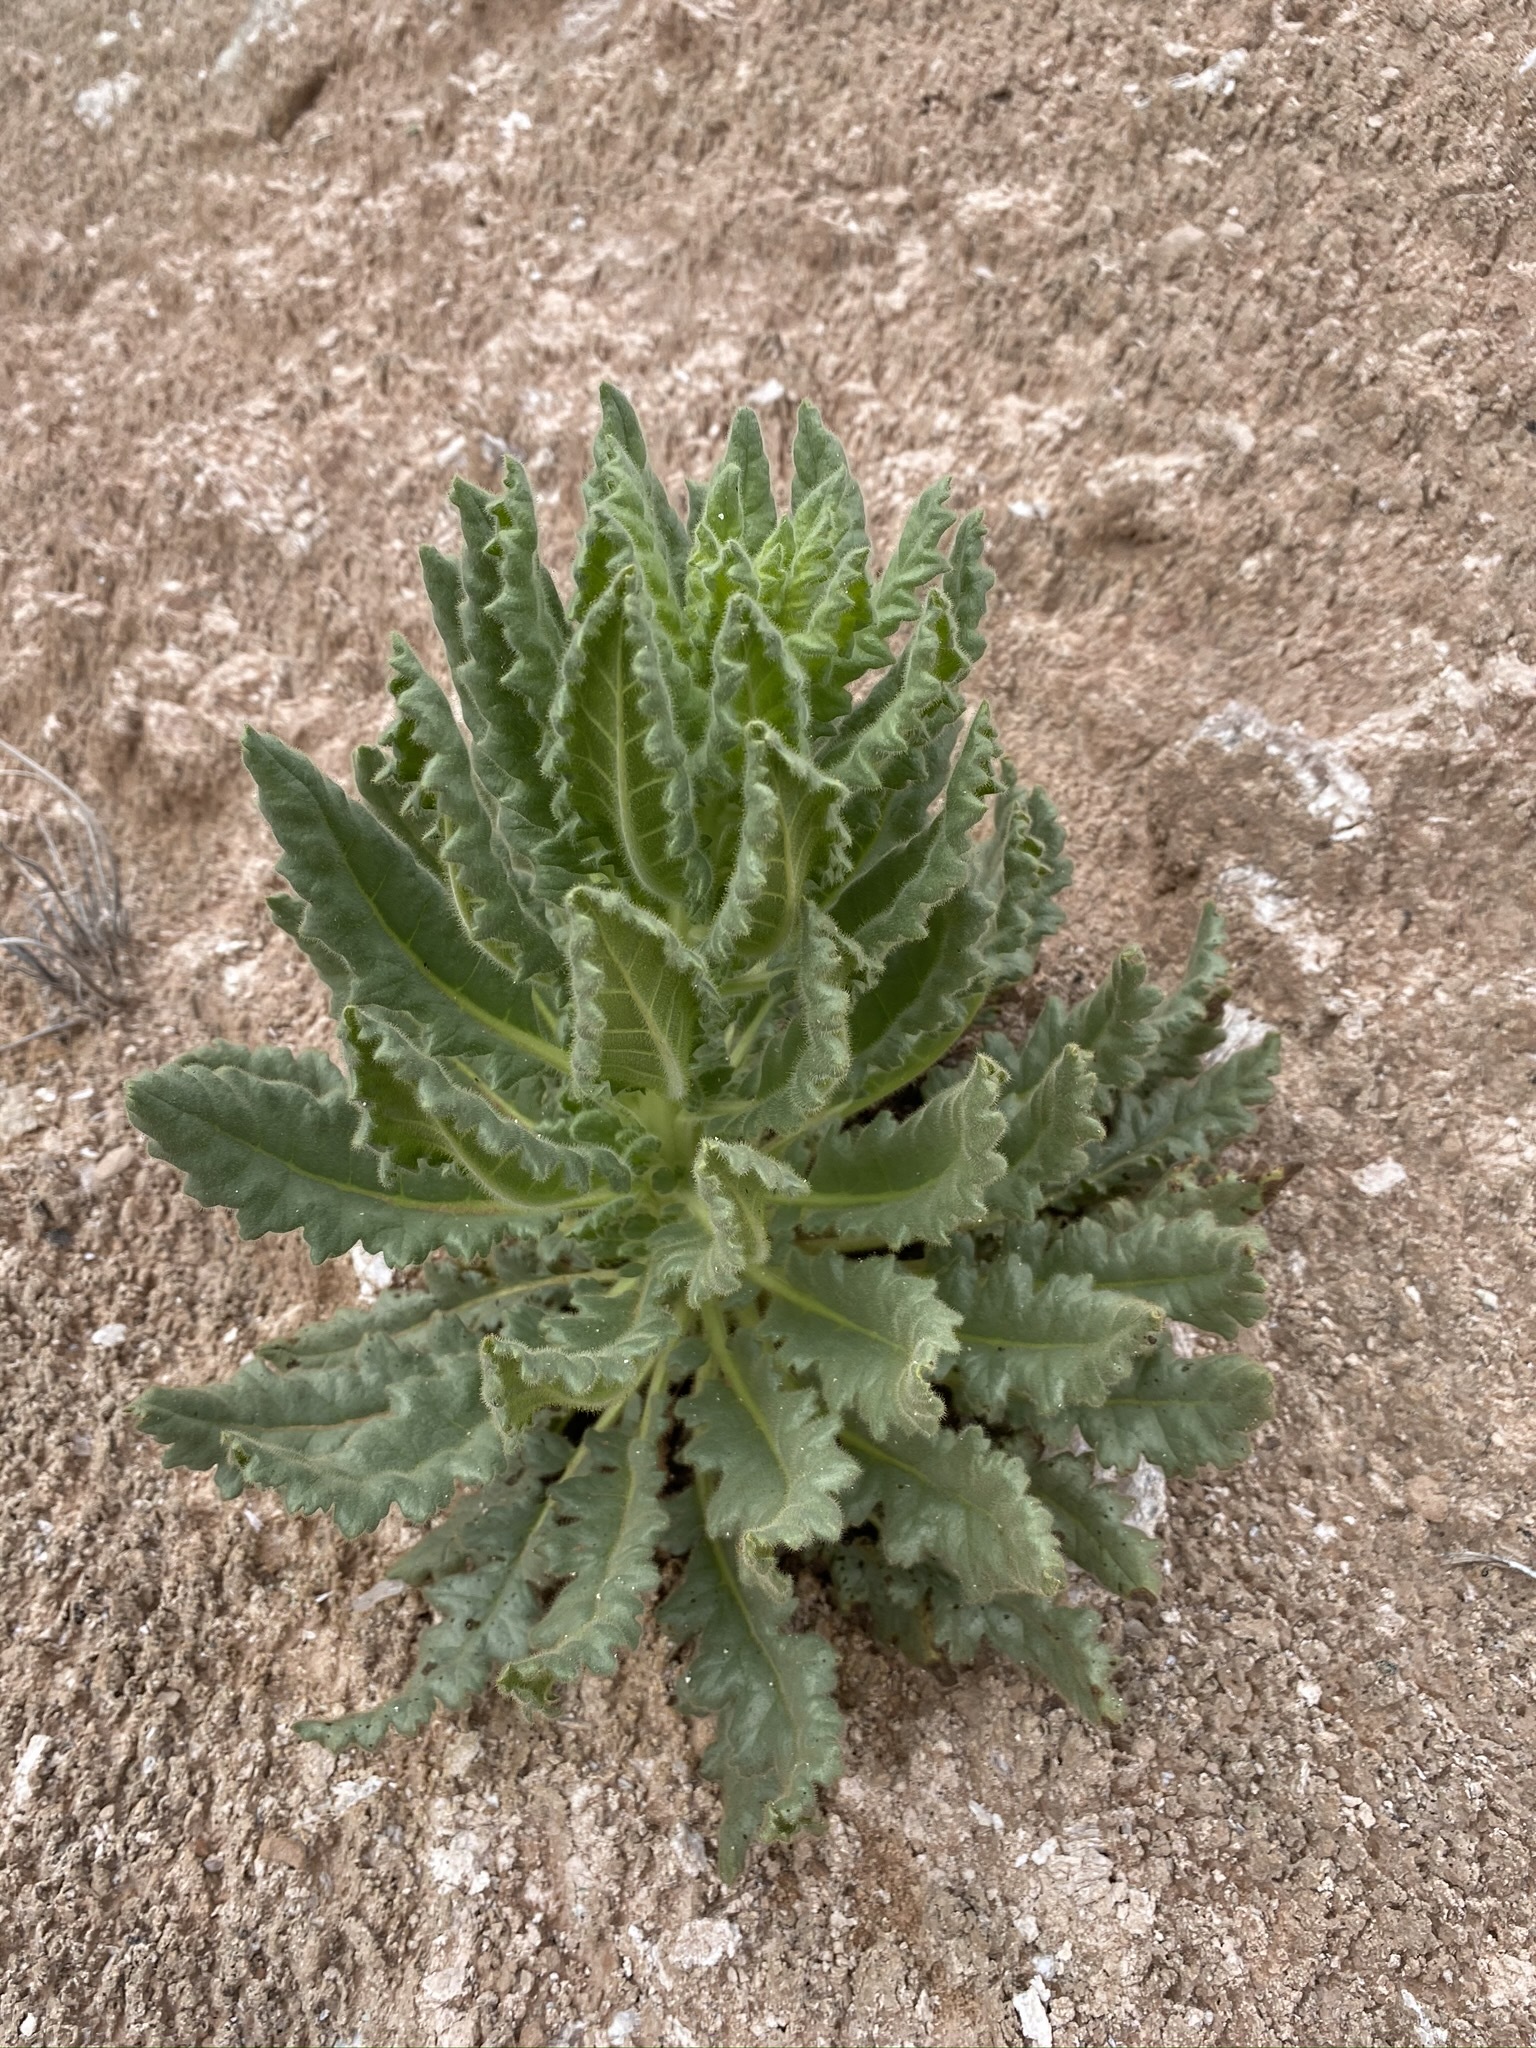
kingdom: Plantae
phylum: Tracheophyta
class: Magnoliopsida
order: Boraginales
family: Hydrophyllaceae
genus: Phacelia
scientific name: Phacelia palmeri
